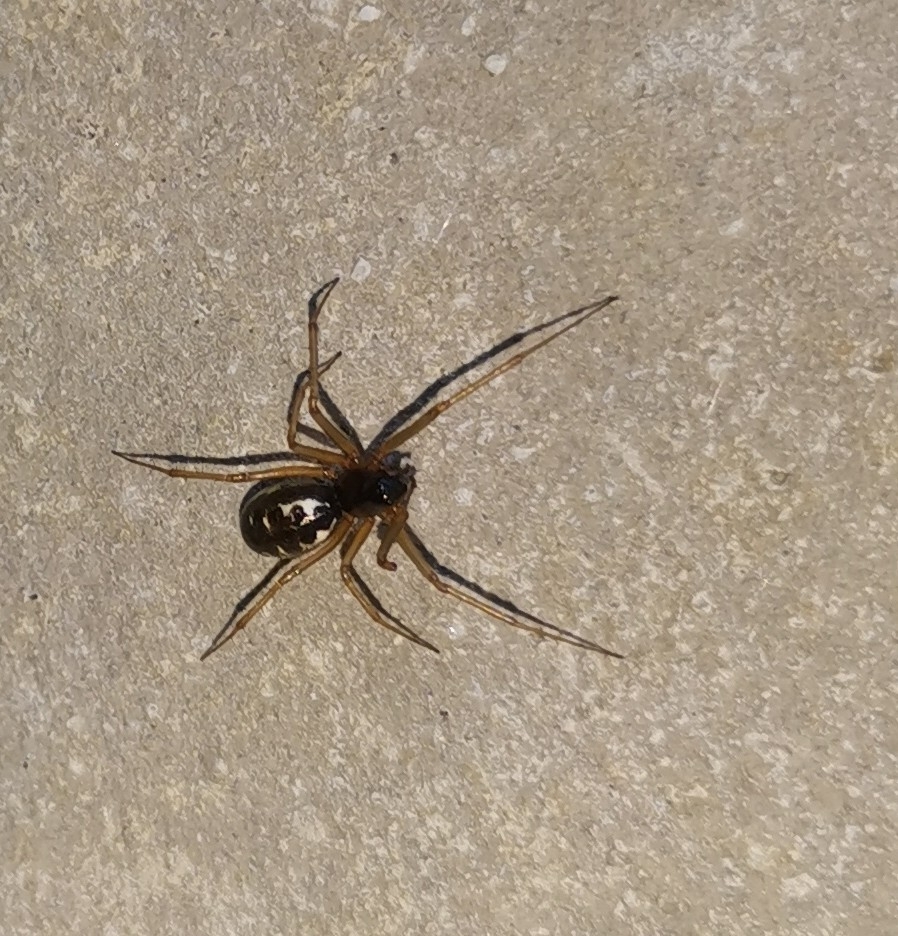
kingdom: Animalia
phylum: Arthropoda
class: Arachnida
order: Araneae
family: Linyphiidae
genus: Linyphia
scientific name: Linyphia hortensis
